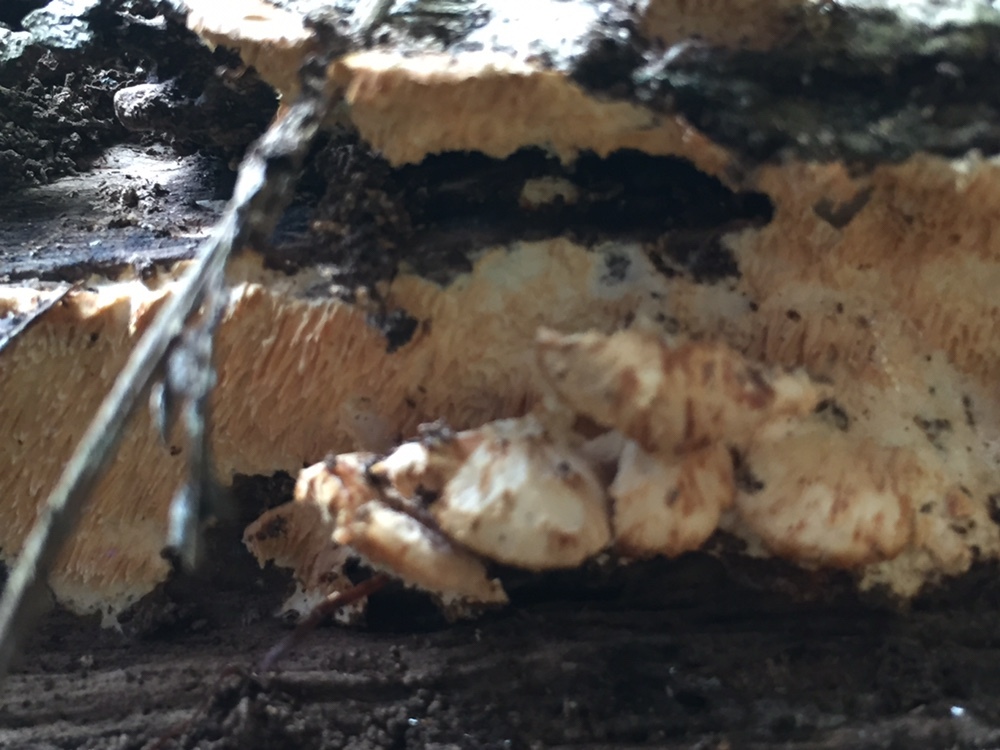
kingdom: Fungi
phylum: Basidiomycota
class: Agaricomycetes
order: Polyporales
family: Cerrenaceae
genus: Cerrena
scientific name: Cerrena zonata
